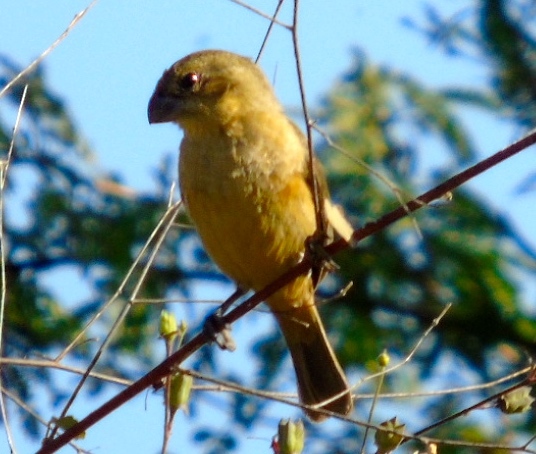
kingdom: Animalia
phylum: Chordata
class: Aves
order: Passeriformes
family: Thraupidae
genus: Sporophila
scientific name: Sporophila torqueola
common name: White-collared seedeater
